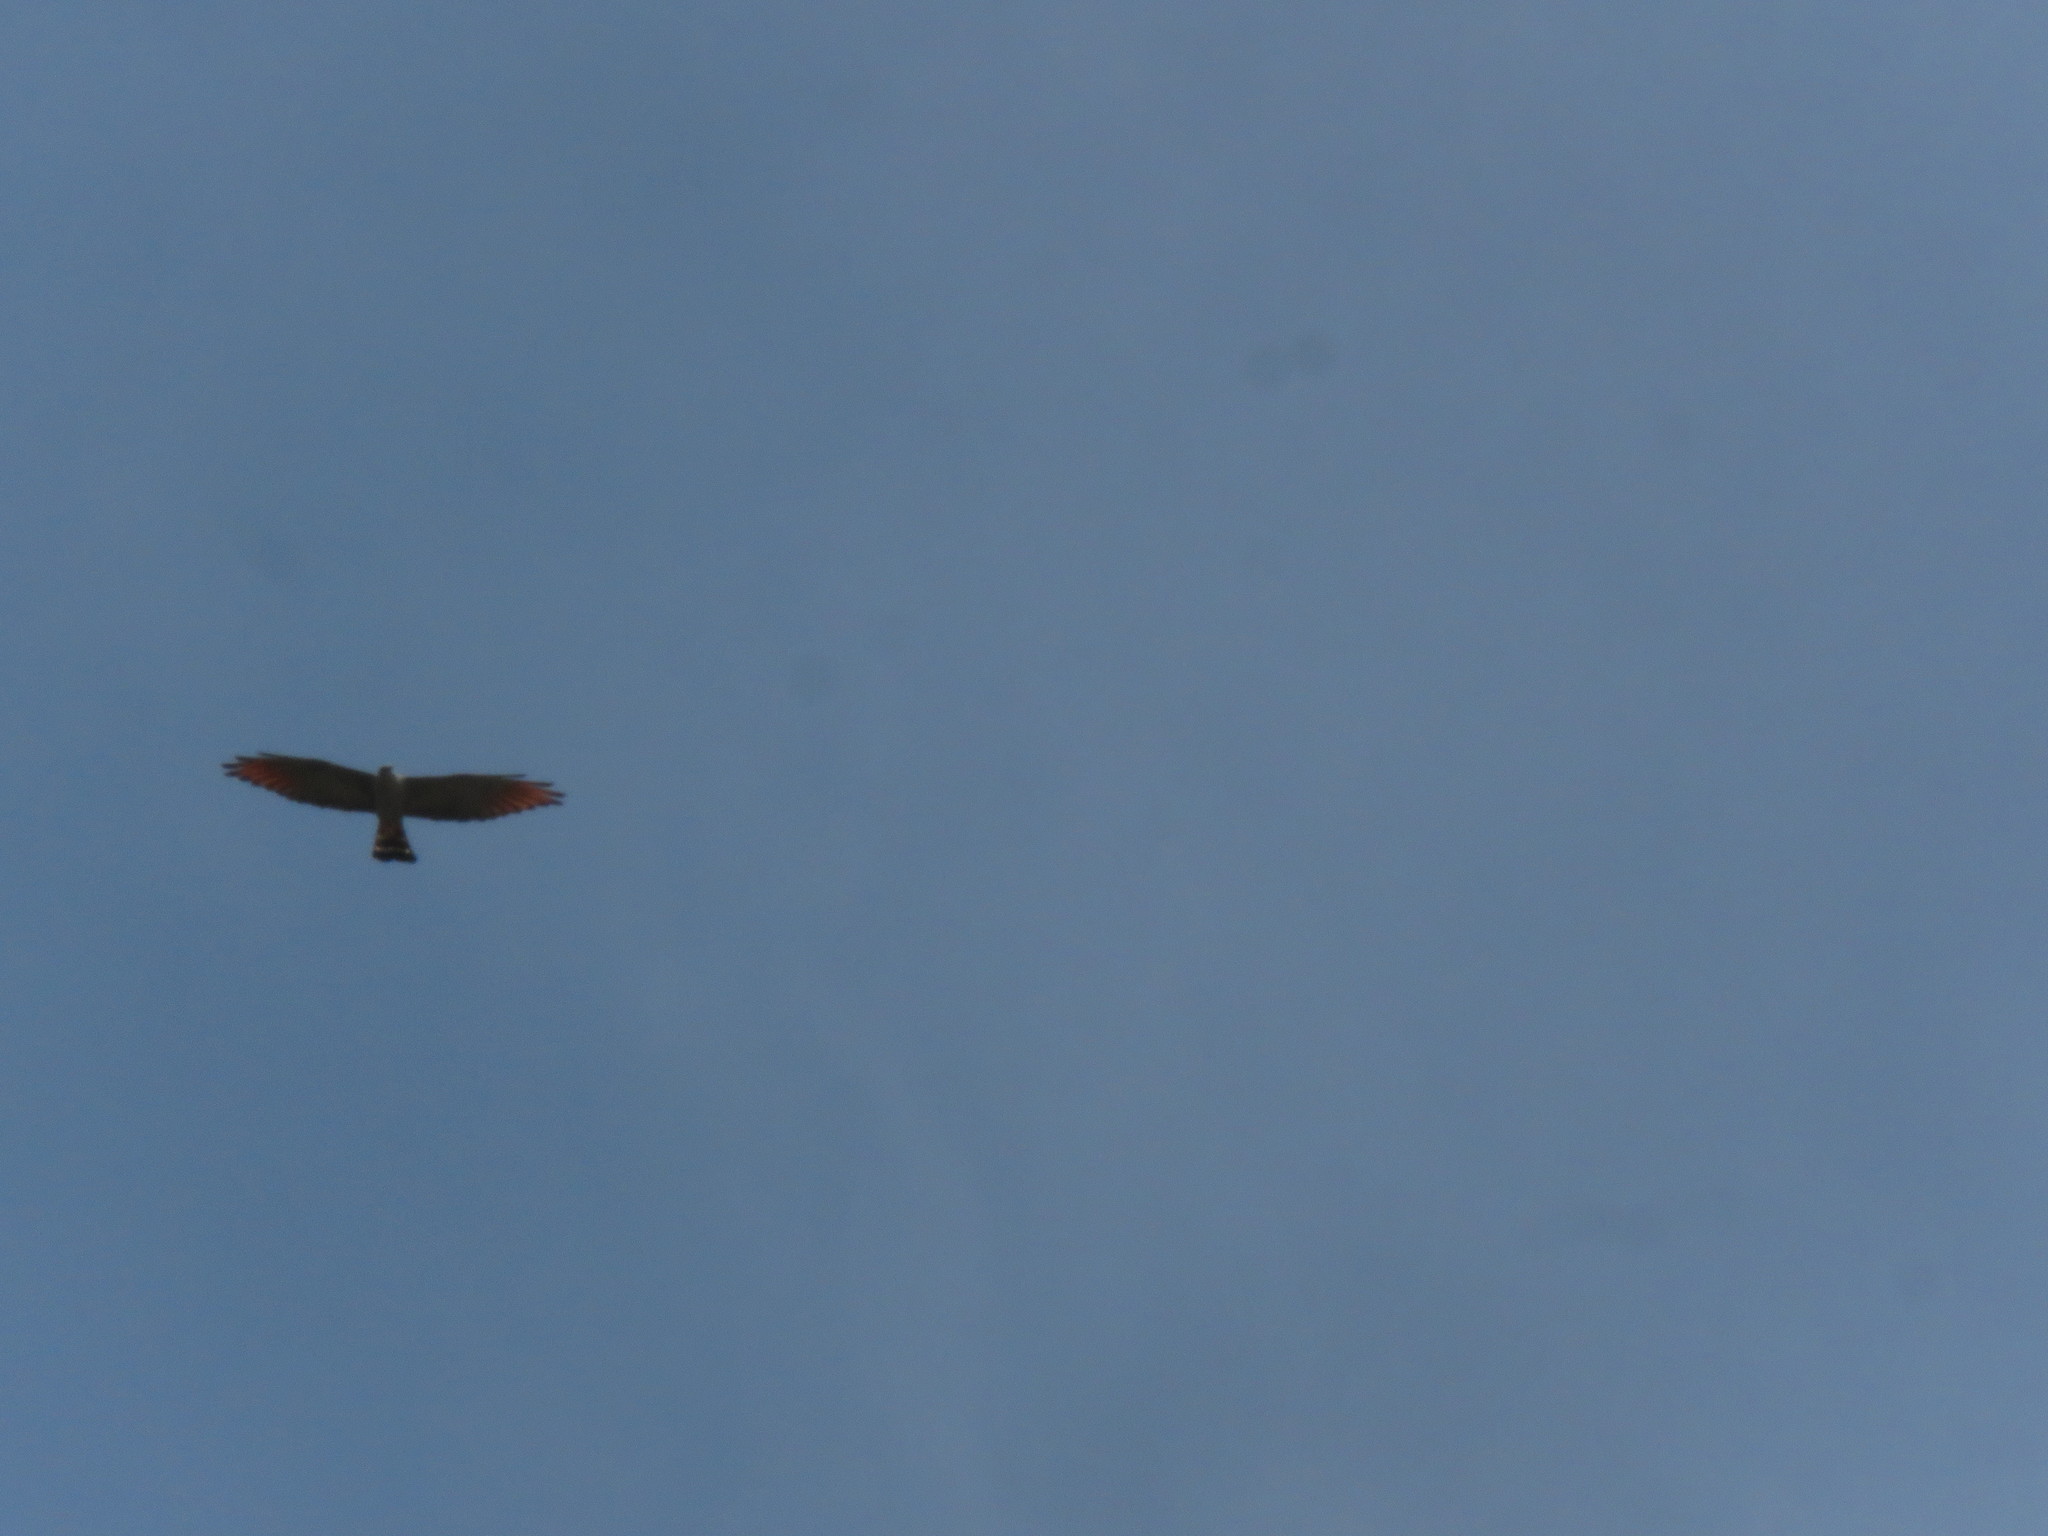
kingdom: Animalia
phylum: Chordata
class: Aves
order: Accipitriformes
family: Accipitridae
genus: Ictinia
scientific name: Ictinia plumbea
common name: Plumbeous kite
